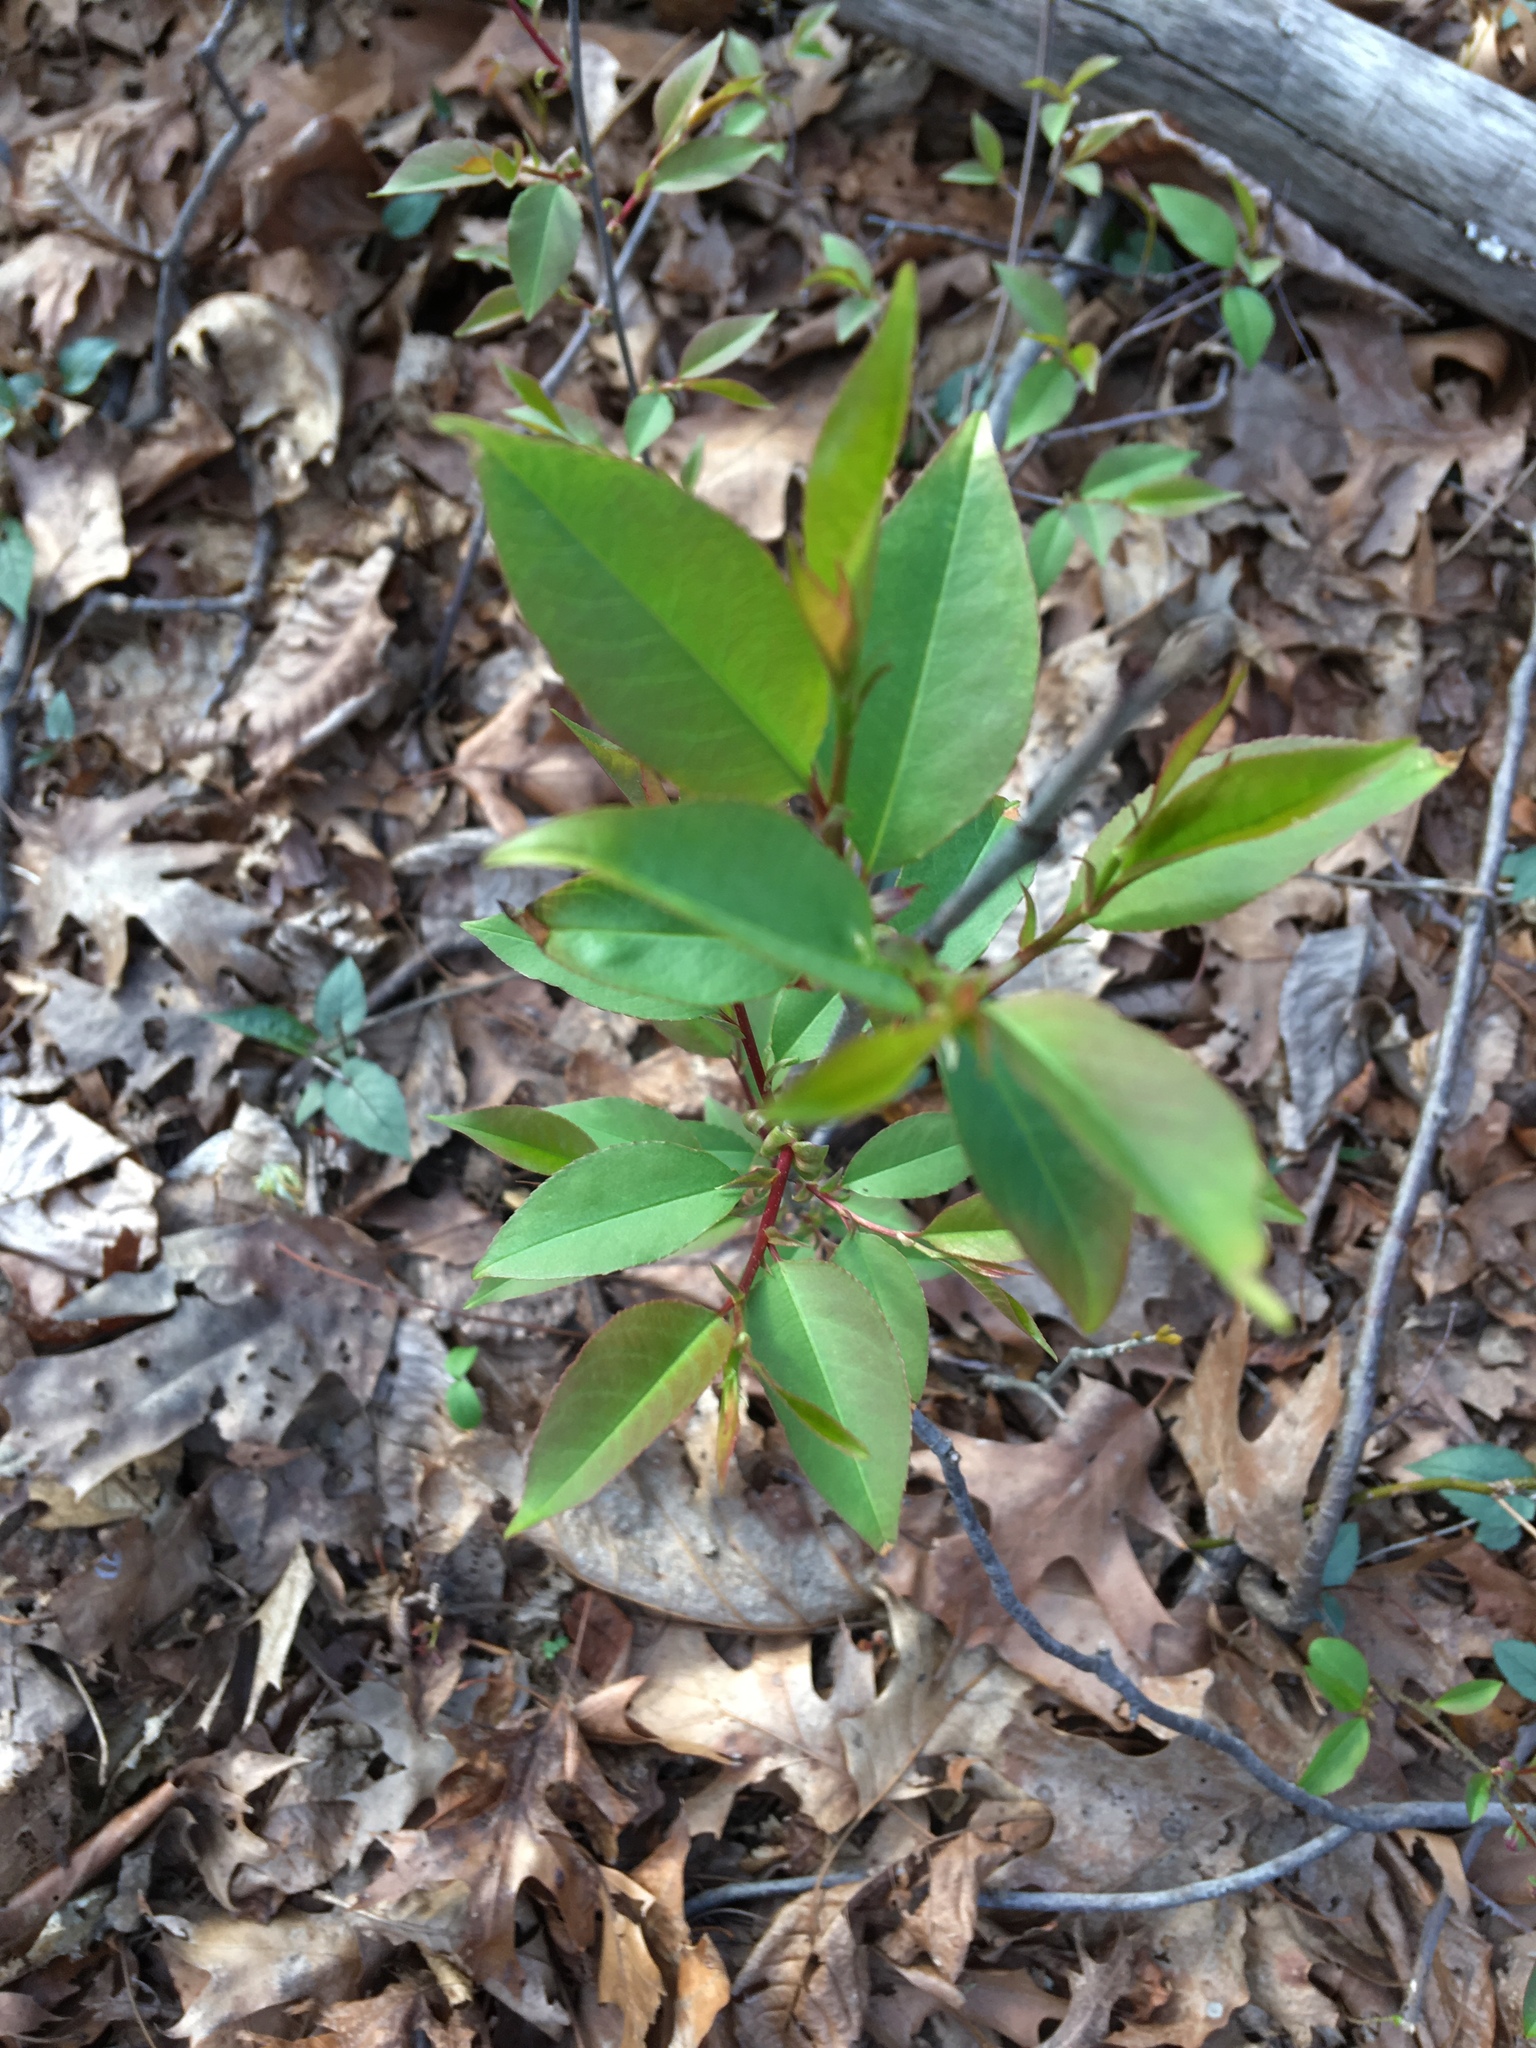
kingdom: Plantae
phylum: Tracheophyta
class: Magnoliopsida
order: Rosales
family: Rosaceae
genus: Prunus
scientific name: Prunus serotina
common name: Black cherry
